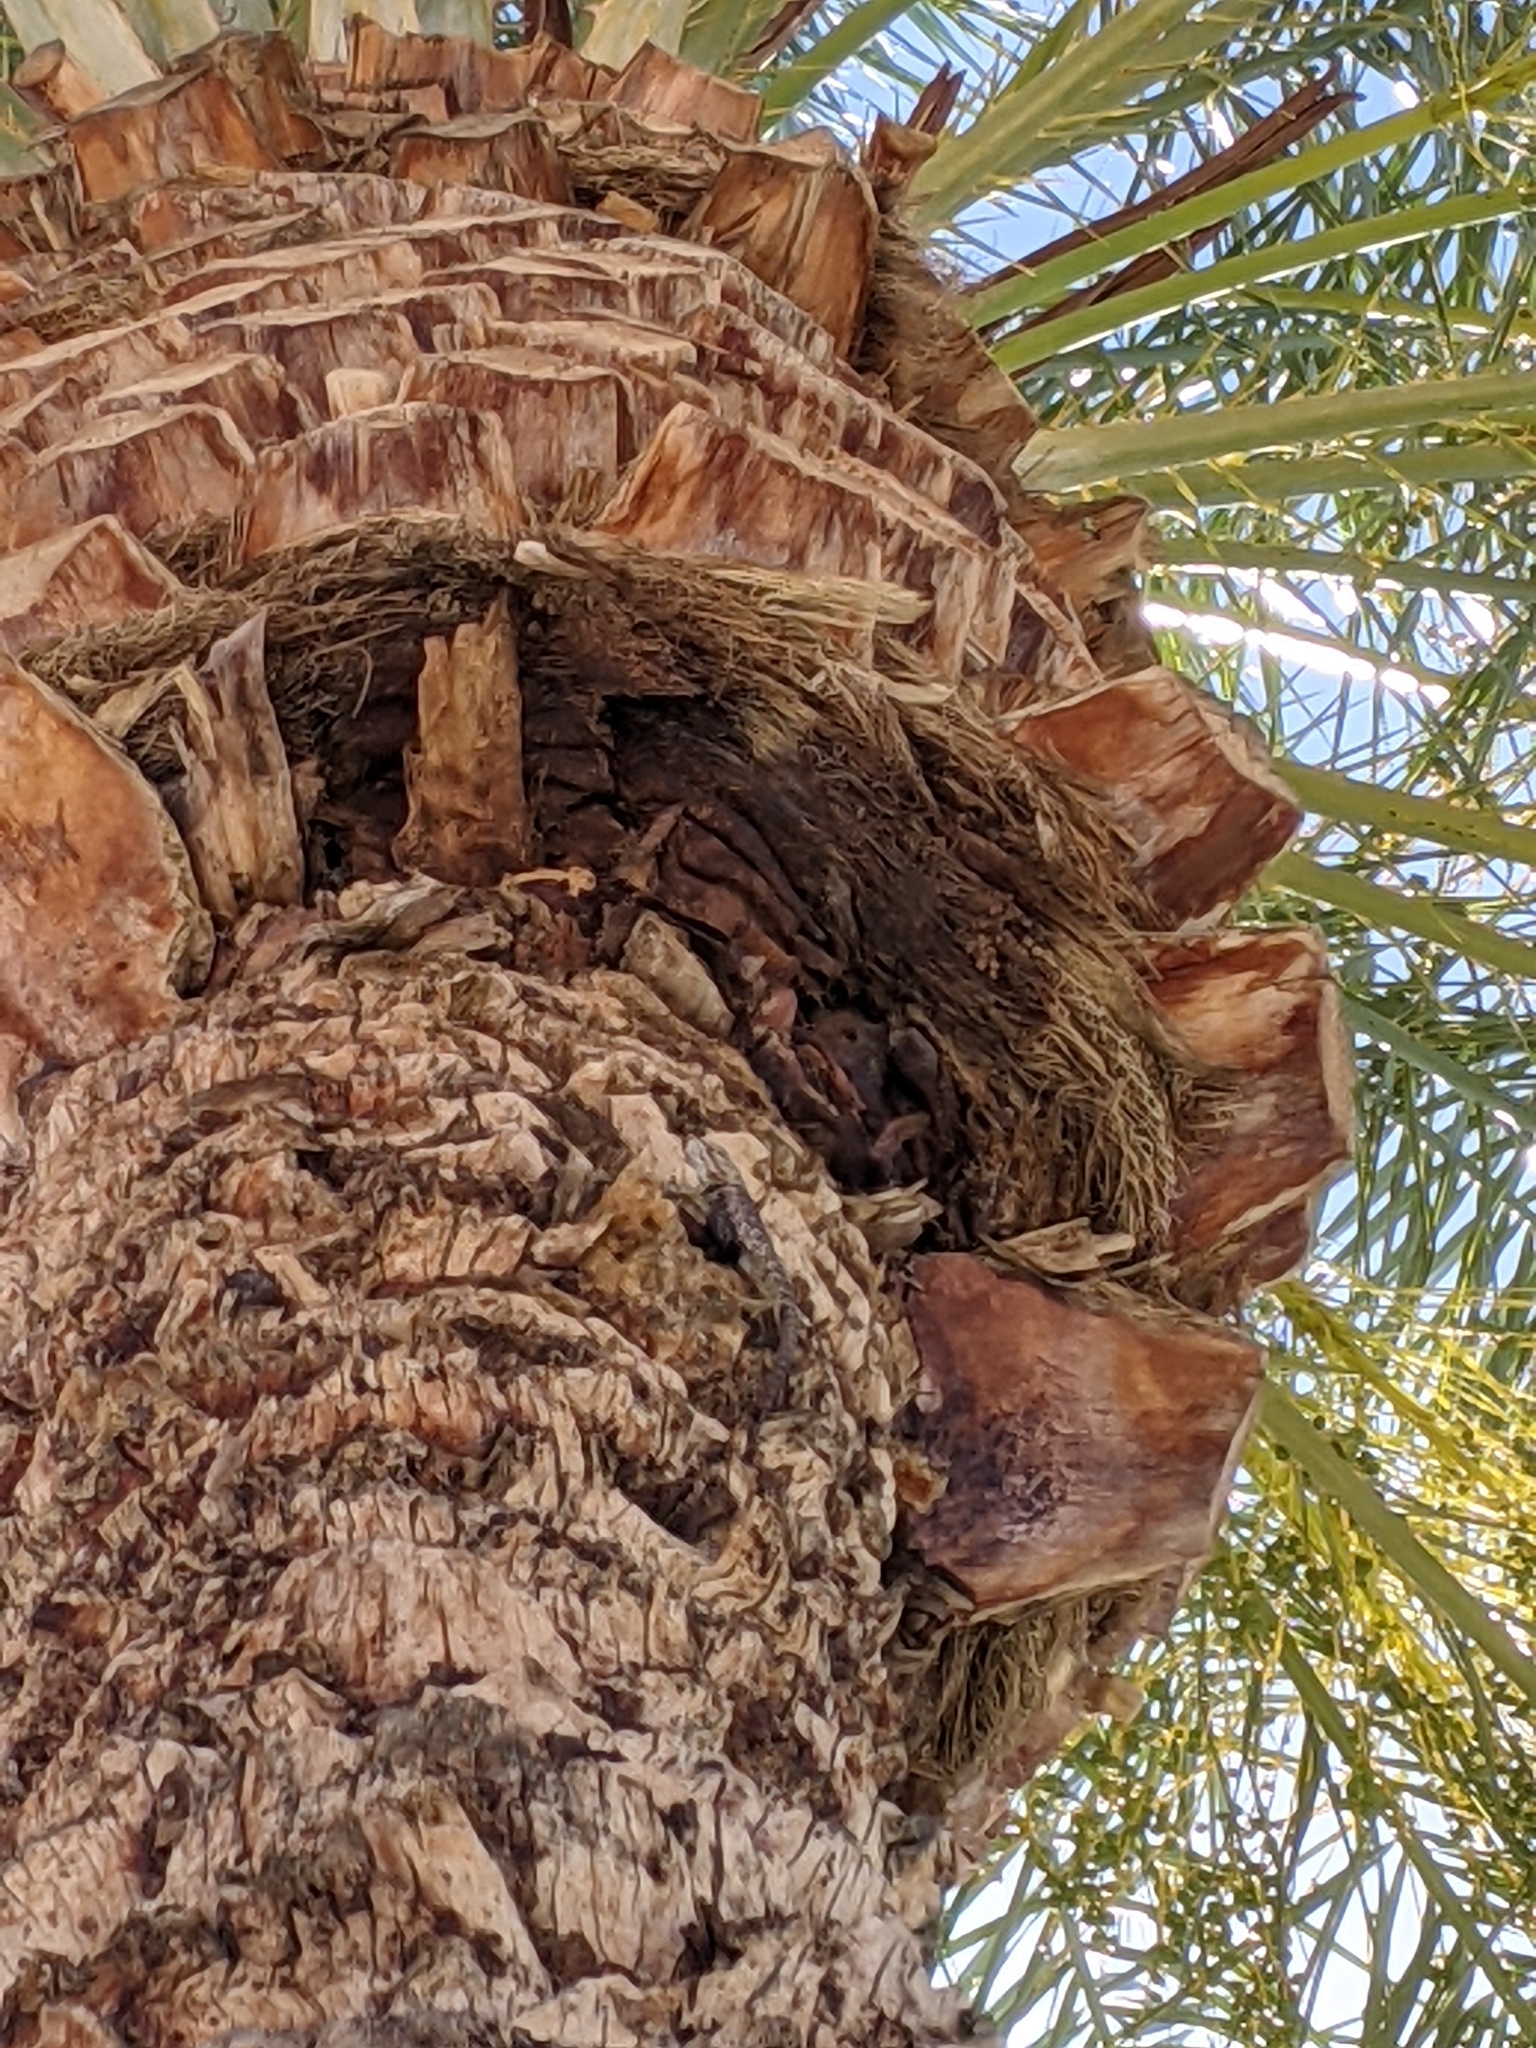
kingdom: Animalia
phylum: Chordata
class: Squamata
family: Phrynosomatidae
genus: Sceloporus
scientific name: Sceloporus uniformis
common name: Yellow-backed spiny lizard
